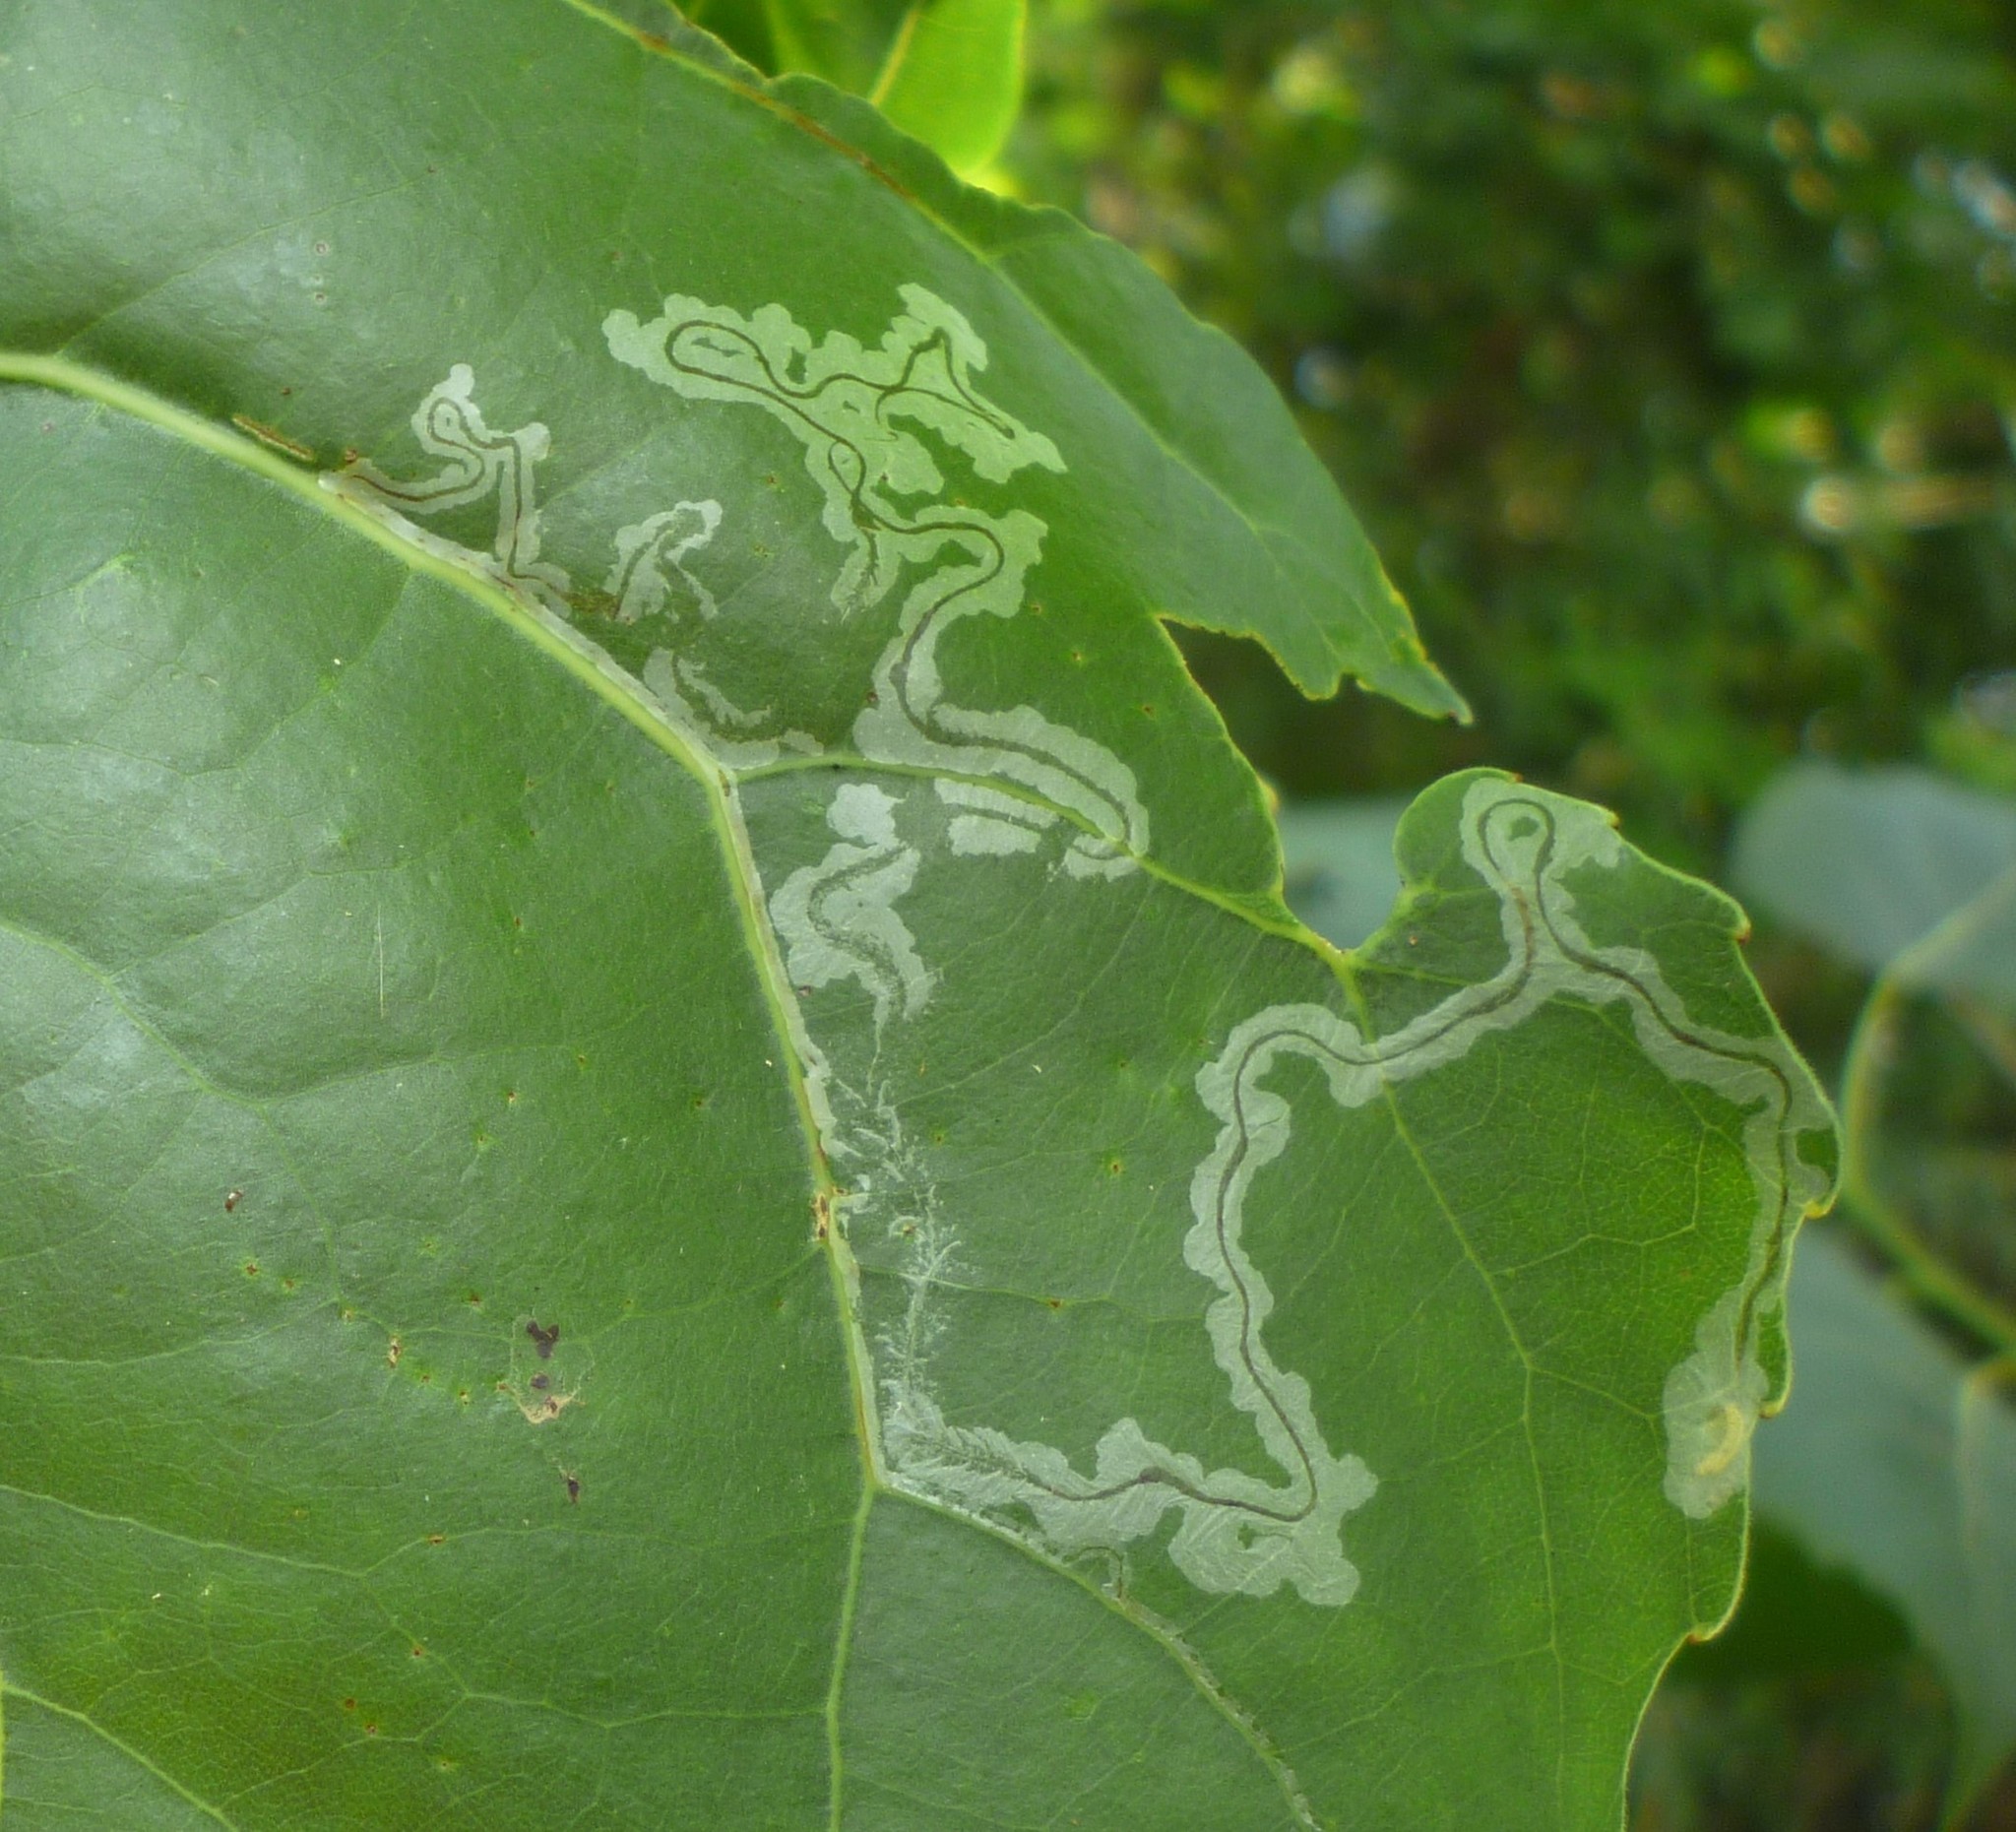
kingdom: Animalia
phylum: Arthropoda
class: Insecta
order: Lepidoptera
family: Gracillariidae
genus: Phyllocnistis
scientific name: Phyllocnistis populiella
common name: Aspen serpentine leafminer moth
